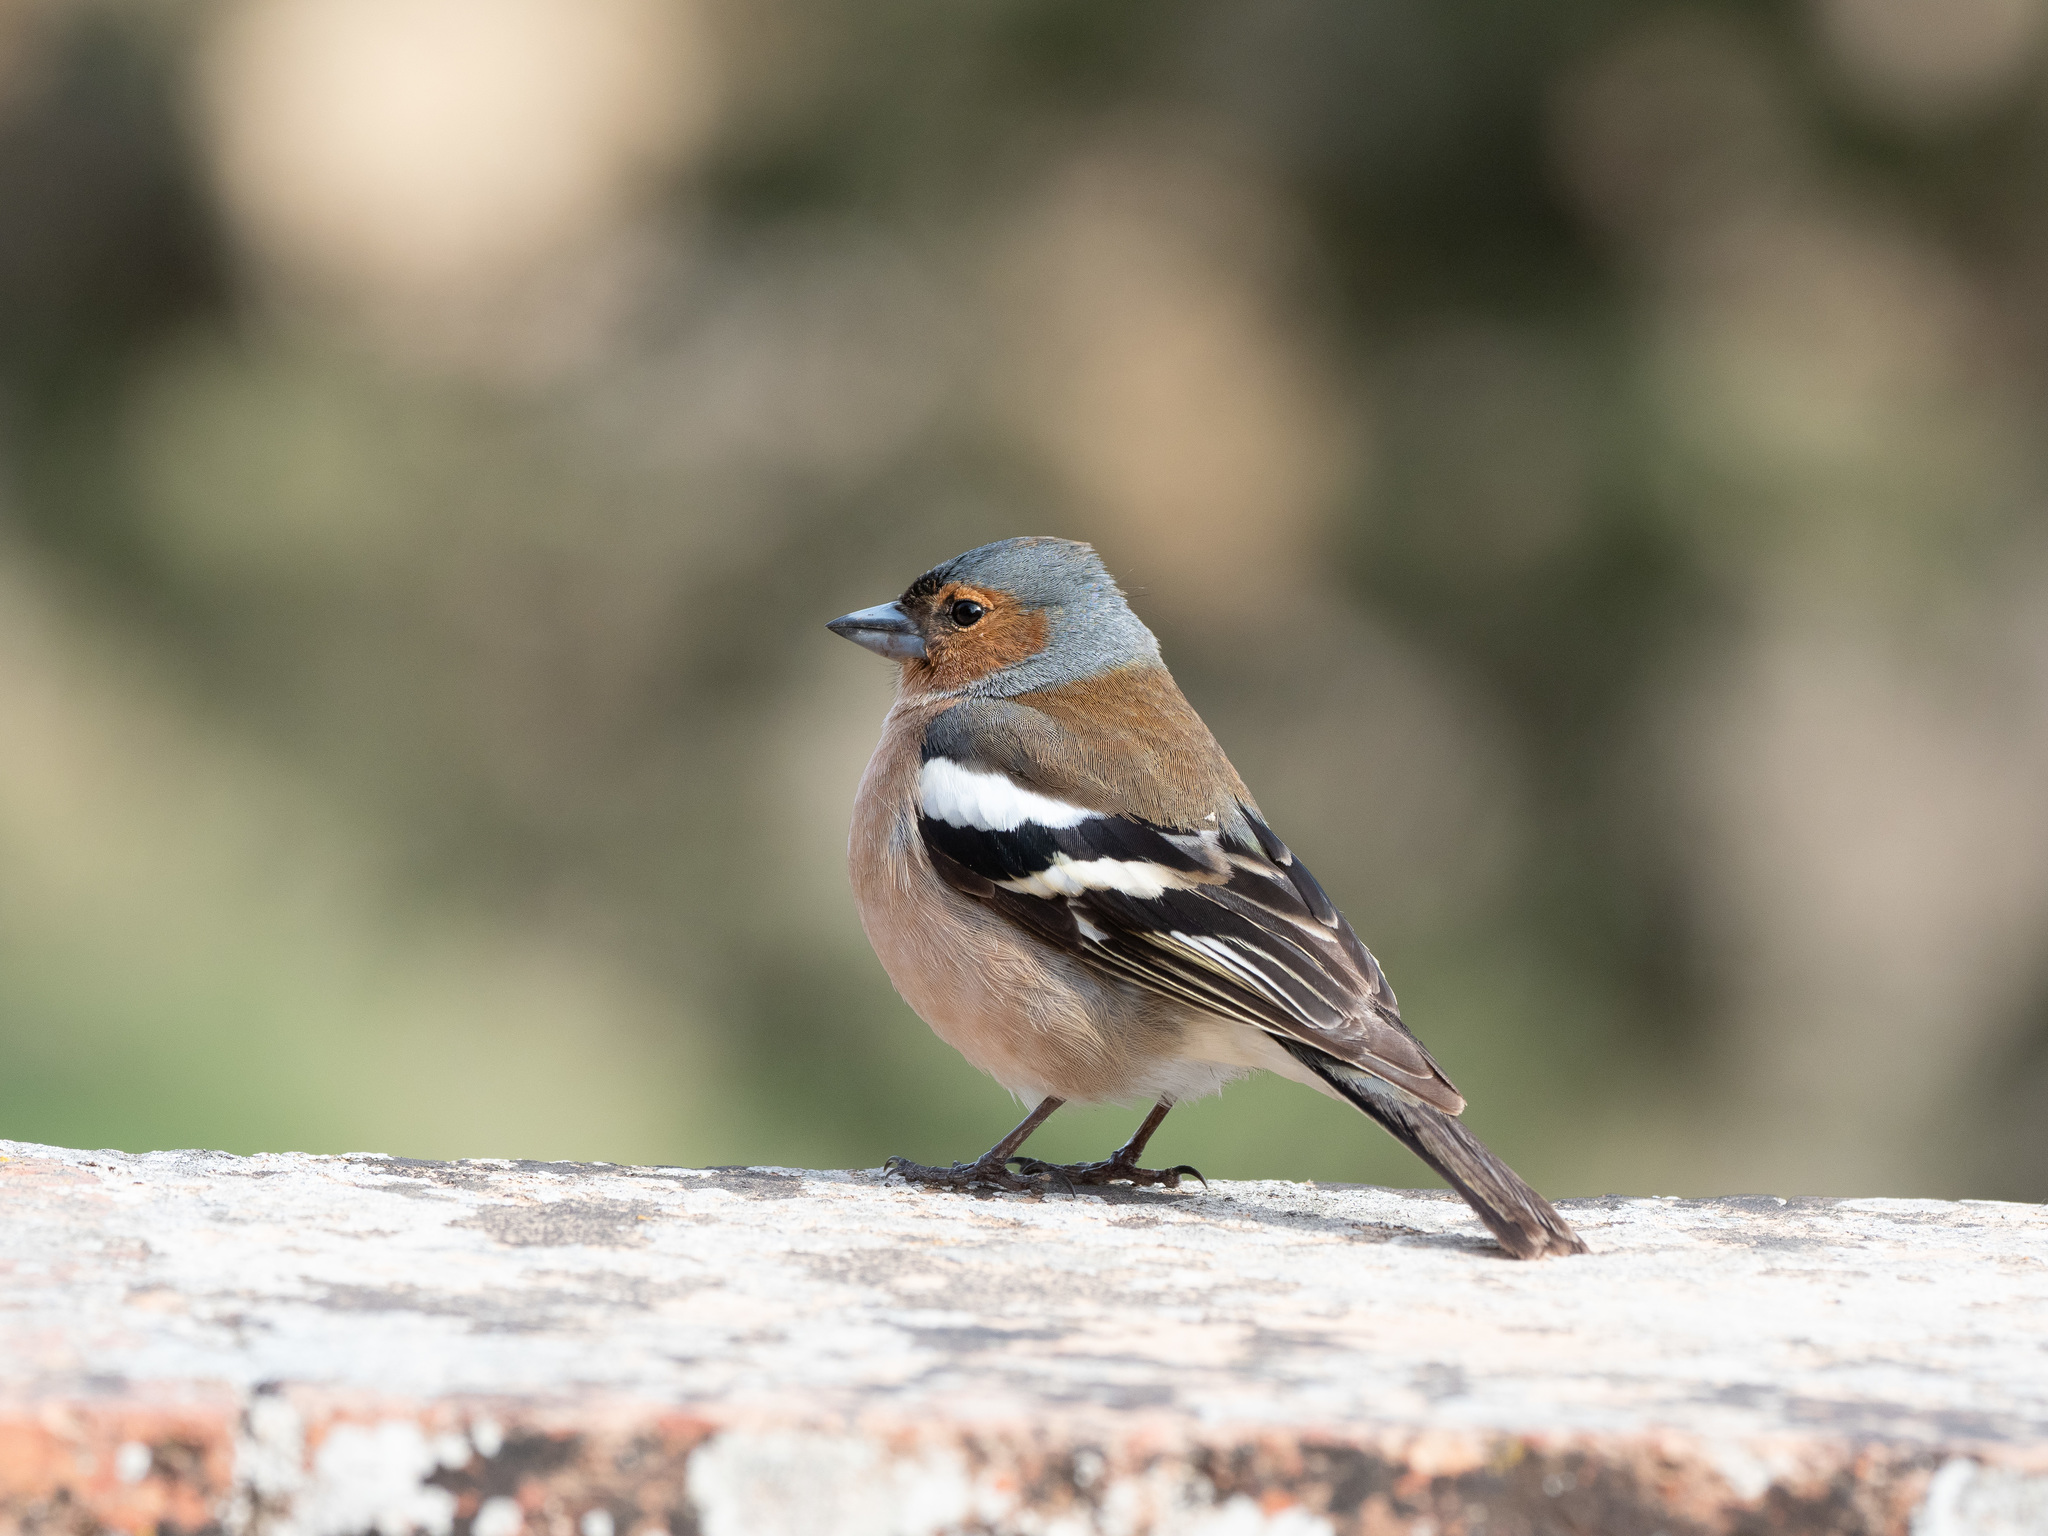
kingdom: Animalia
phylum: Chordata
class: Aves
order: Passeriformes
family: Fringillidae
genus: Fringilla
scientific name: Fringilla coelebs
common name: Common chaffinch
